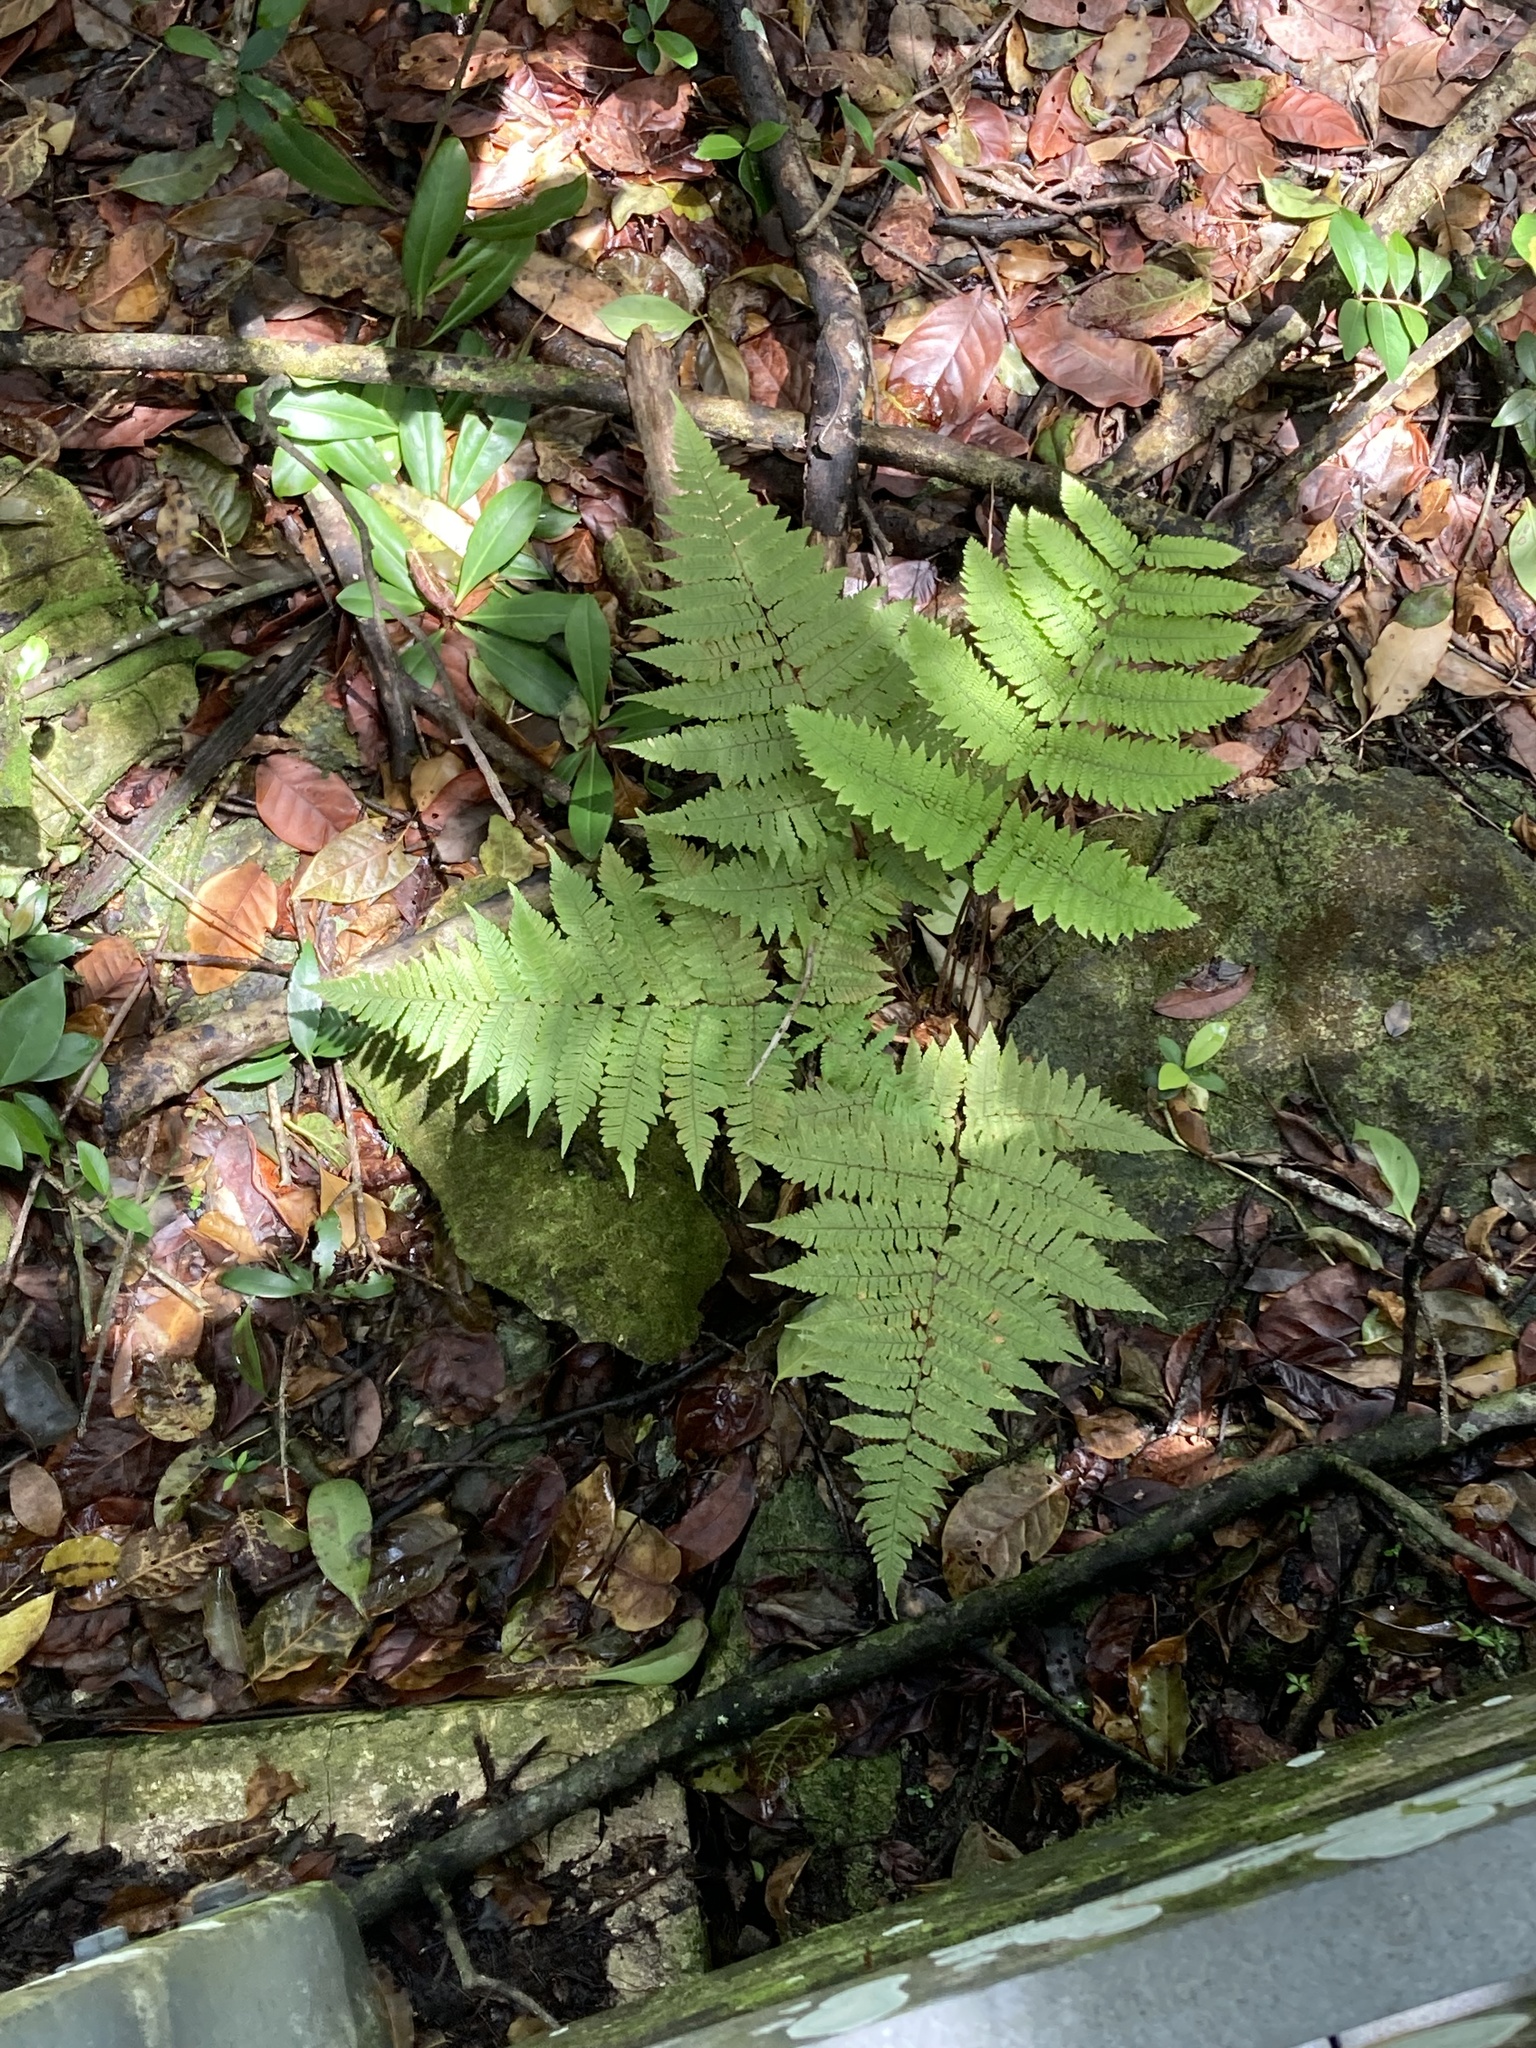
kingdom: Plantae
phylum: Tracheophyta
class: Polypodiopsida
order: Polypodiales
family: Dryopteridaceae
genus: Ctenitis
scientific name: Ctenitis sloanei
